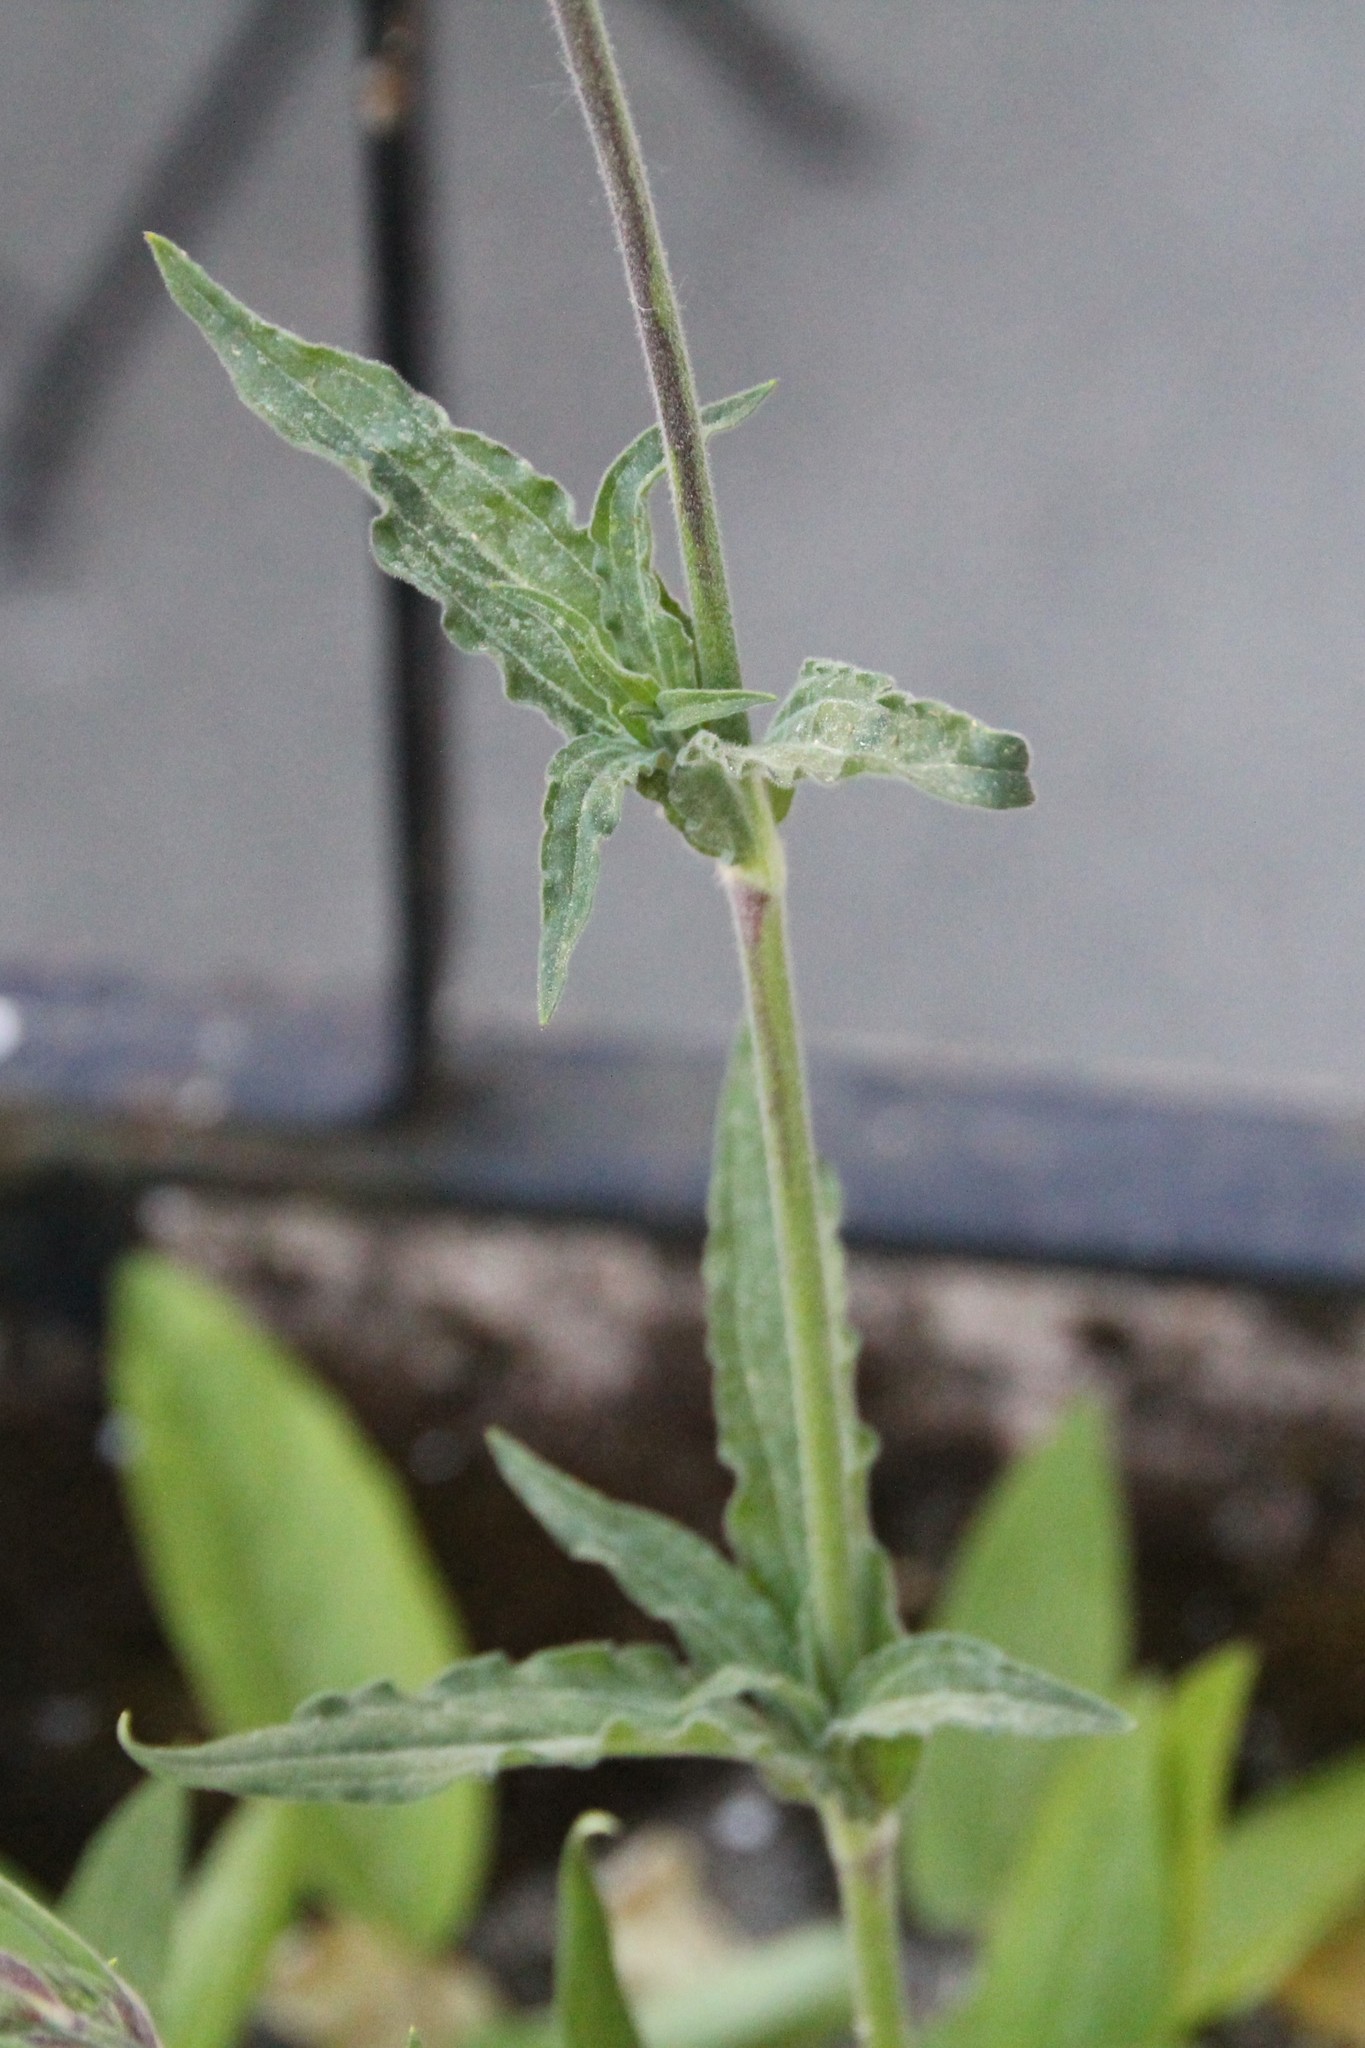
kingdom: Plantae
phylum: Tracheophyta
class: Magnoliopsida
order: Caryophyllales
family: Caryophyllaceae
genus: Silene
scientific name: Silene latifolia
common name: White campion
